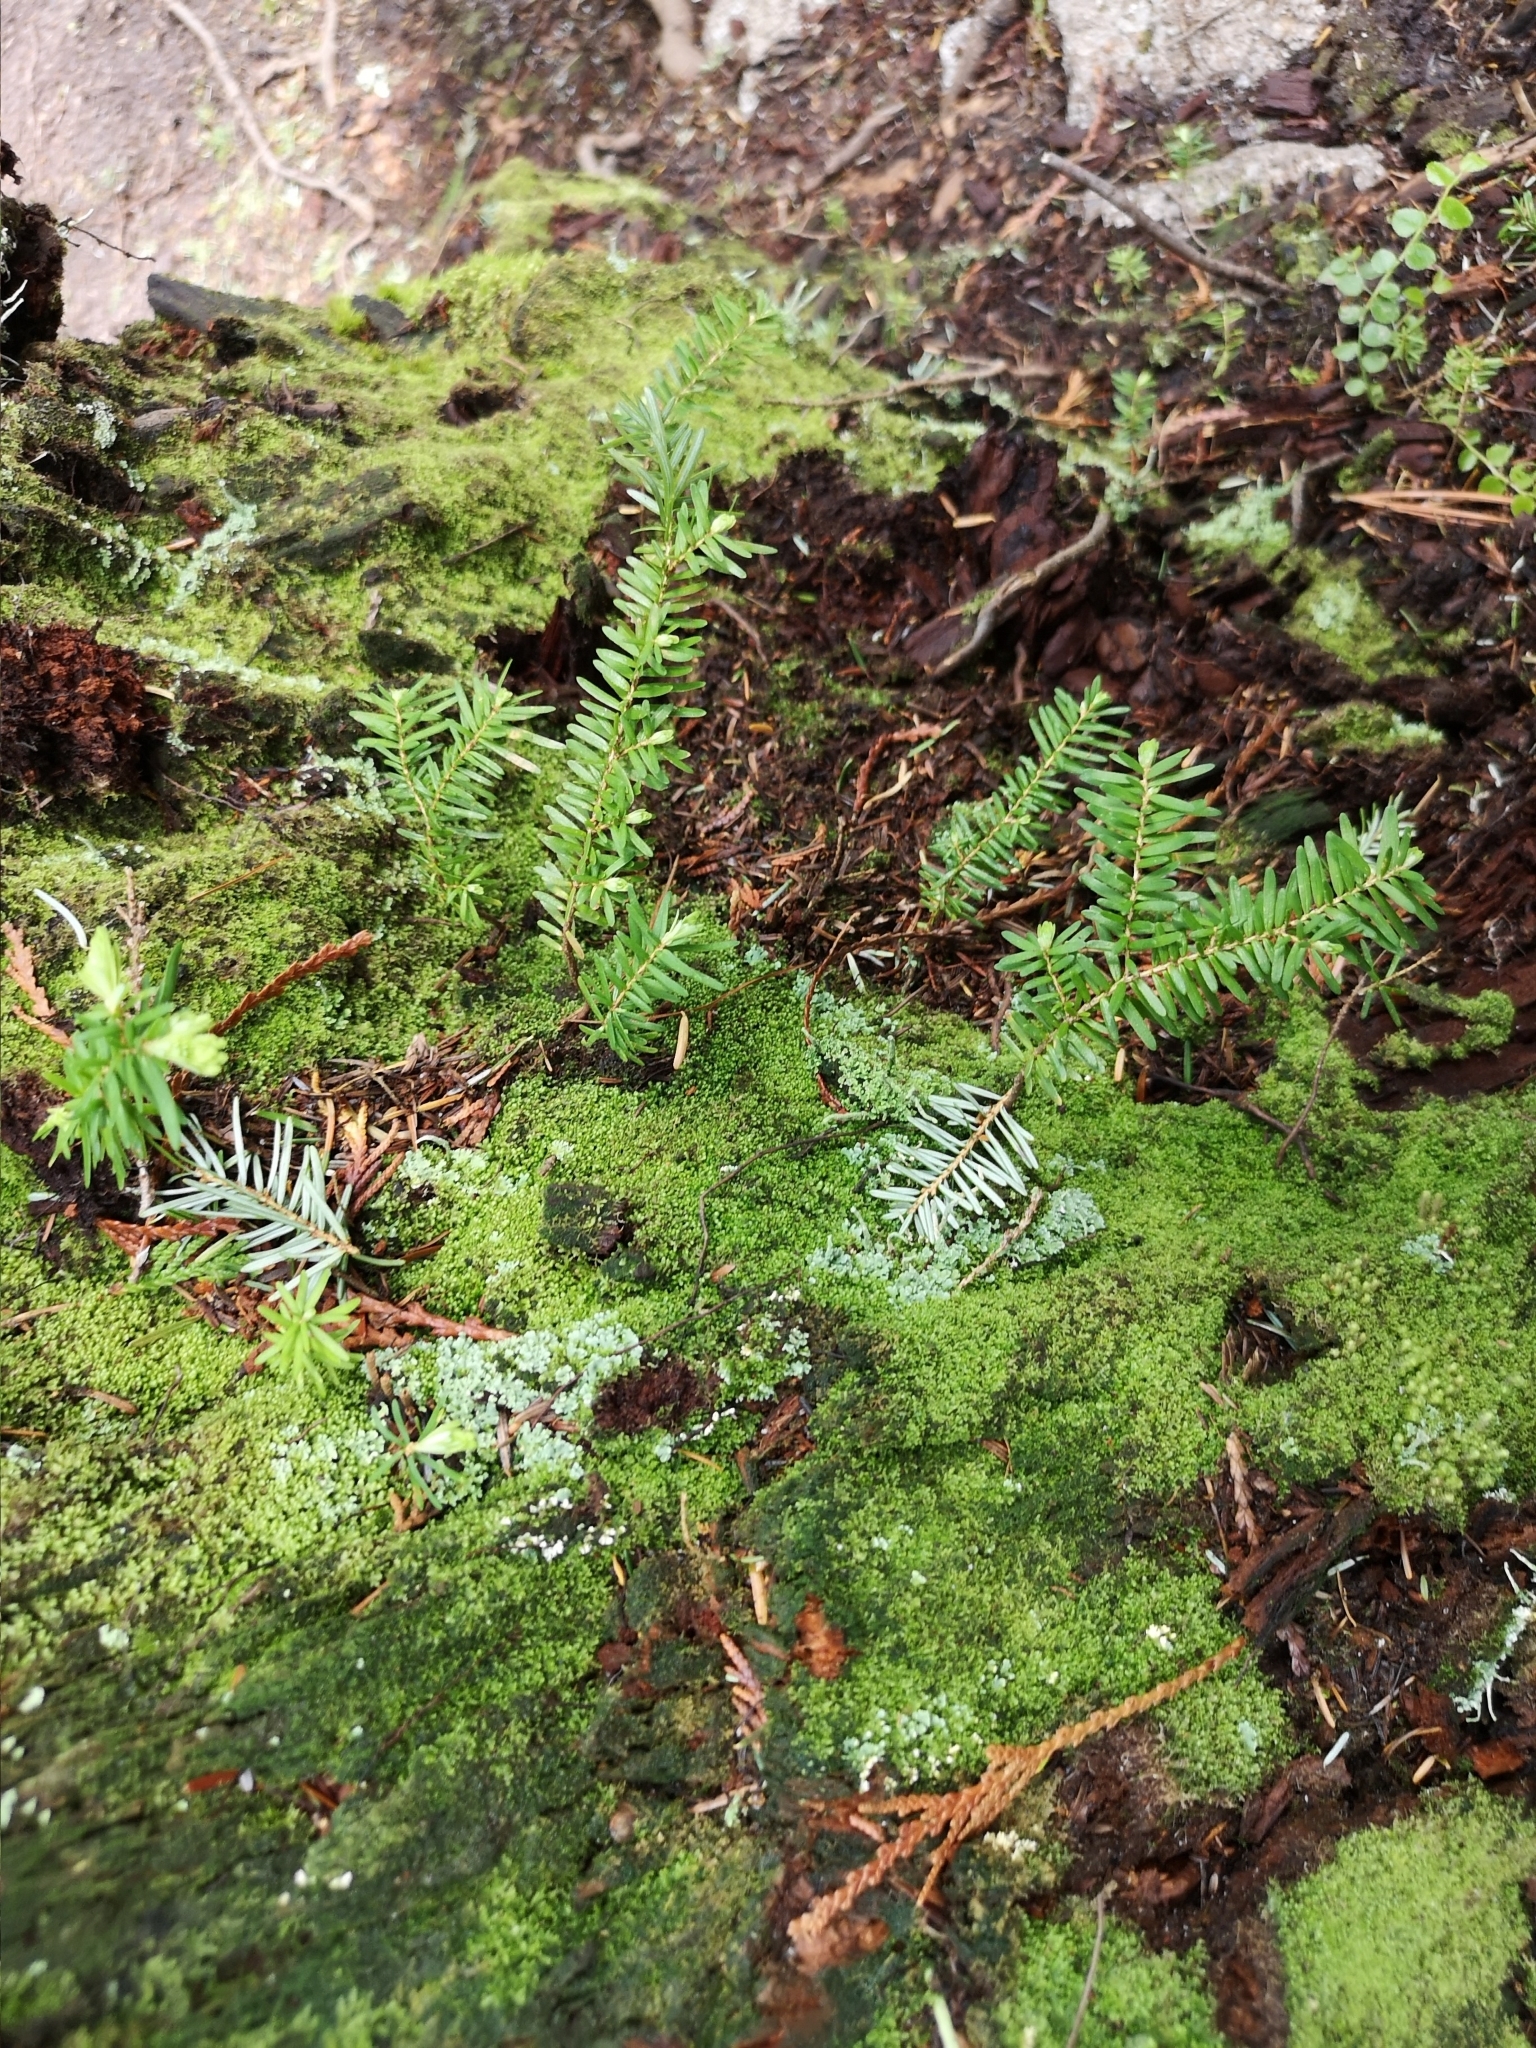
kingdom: Plantae
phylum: Tracheophyta
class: Pinopsida
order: Pinales
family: Pinaceae
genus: Tsuga
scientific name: Tsuga heterophylla
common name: Western hemlock
